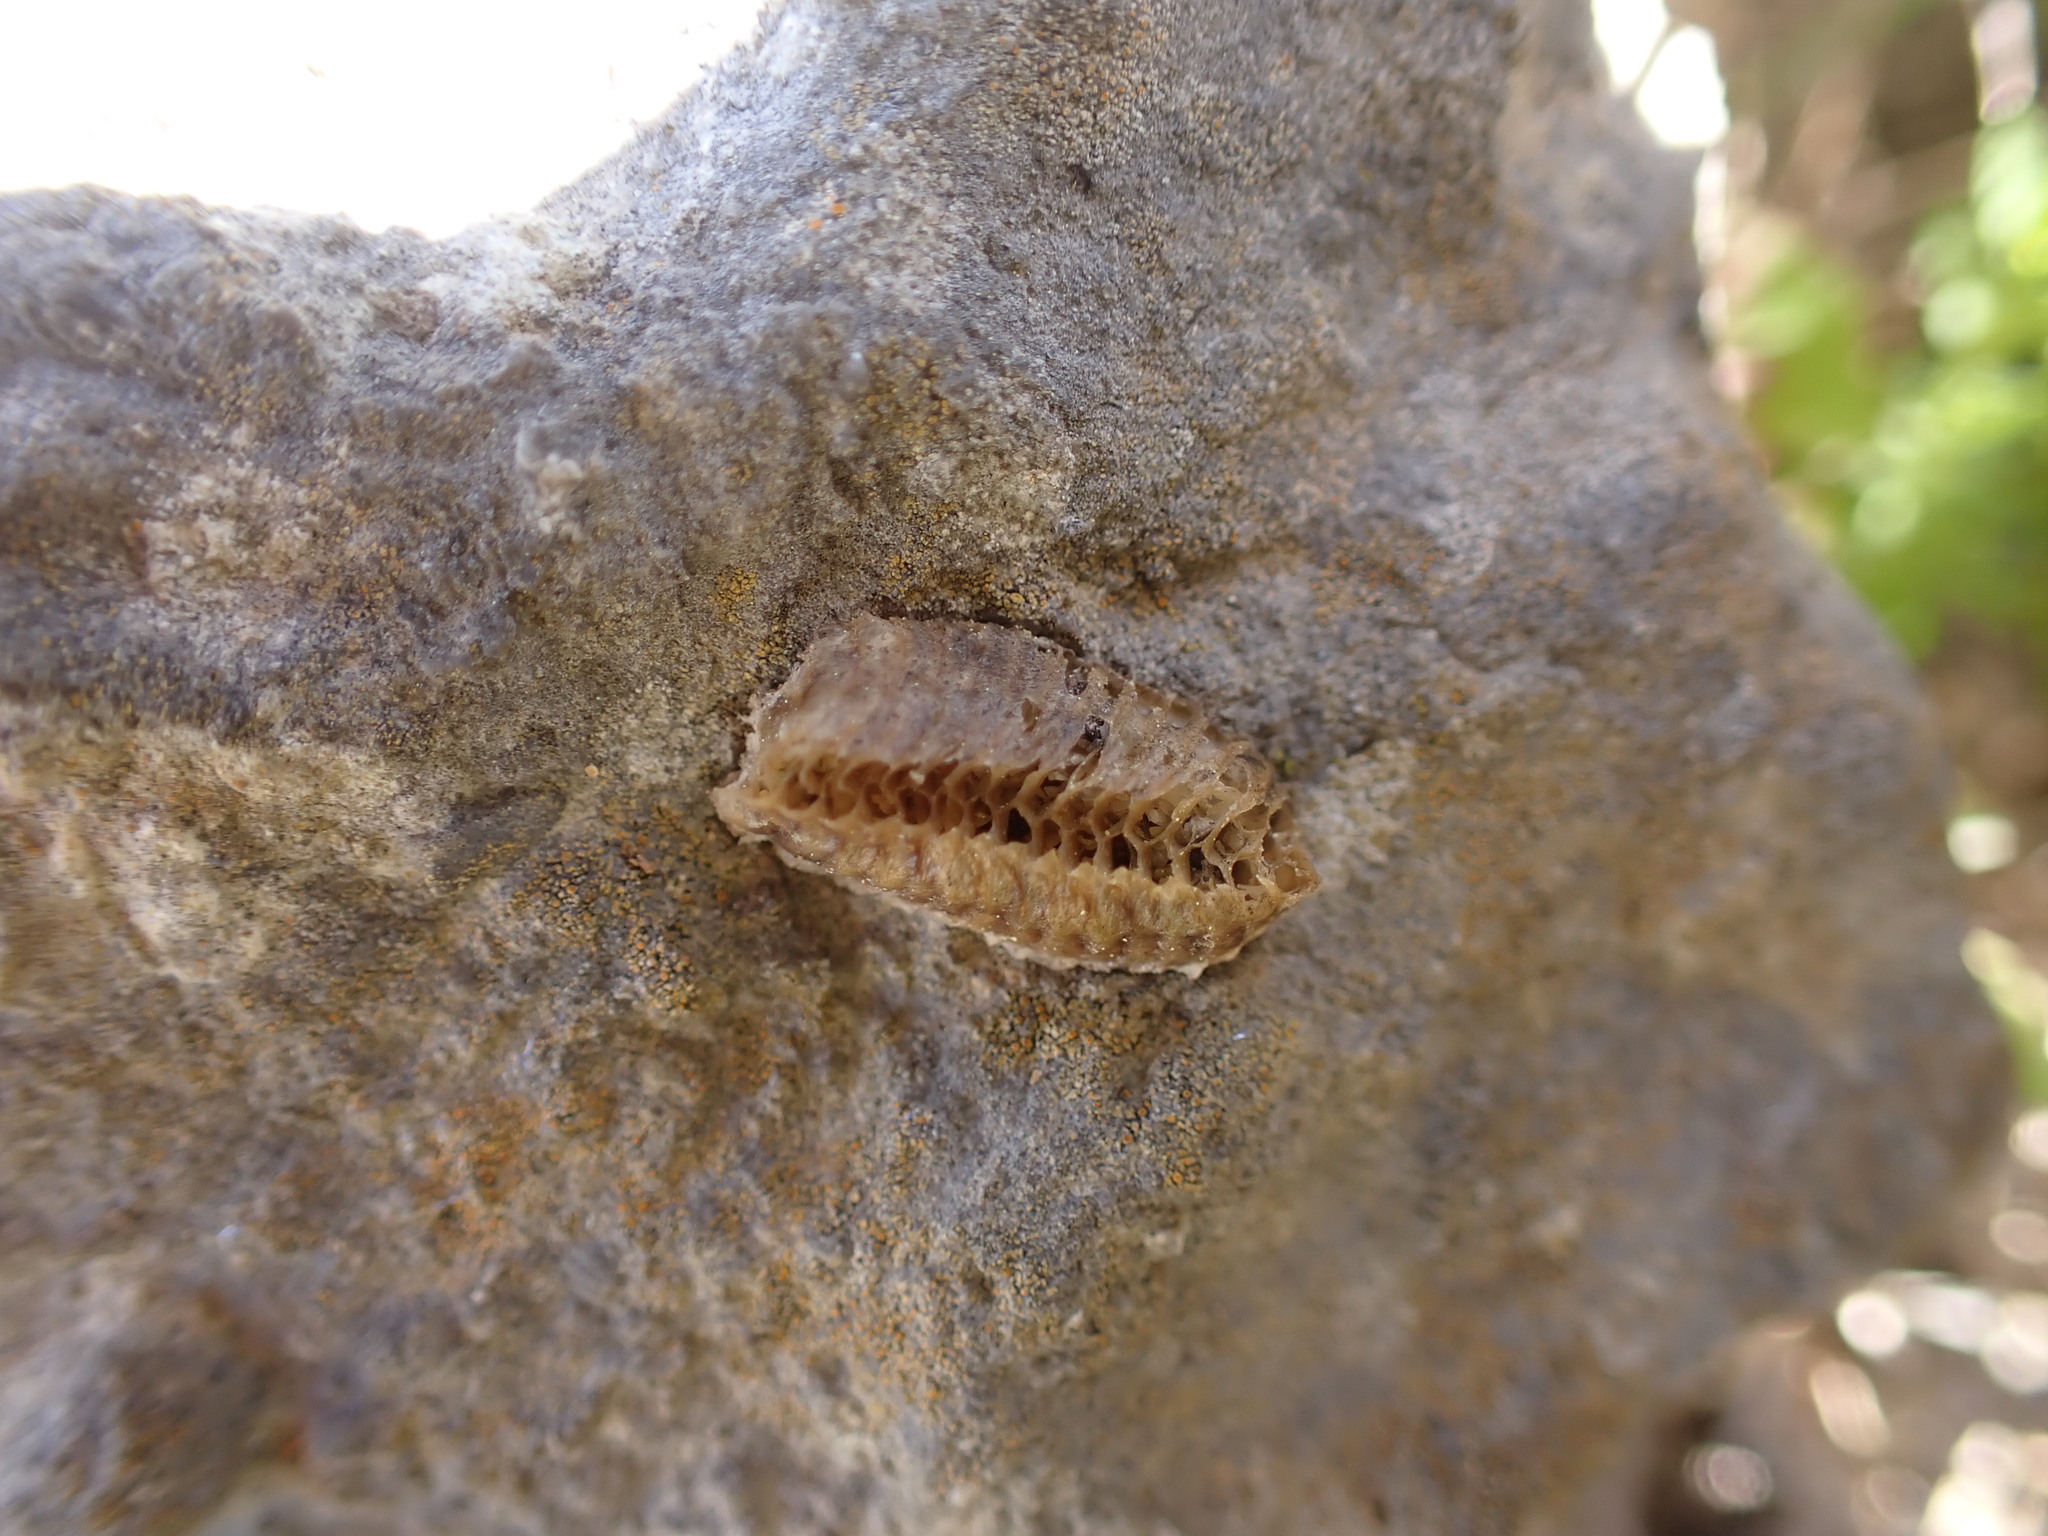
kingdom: Animalia
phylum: Arthropoda
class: Insecta
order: Mantodea
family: Eremiaphilidae
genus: Iris
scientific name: Iris oratoria
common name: Mediterranean mantis
